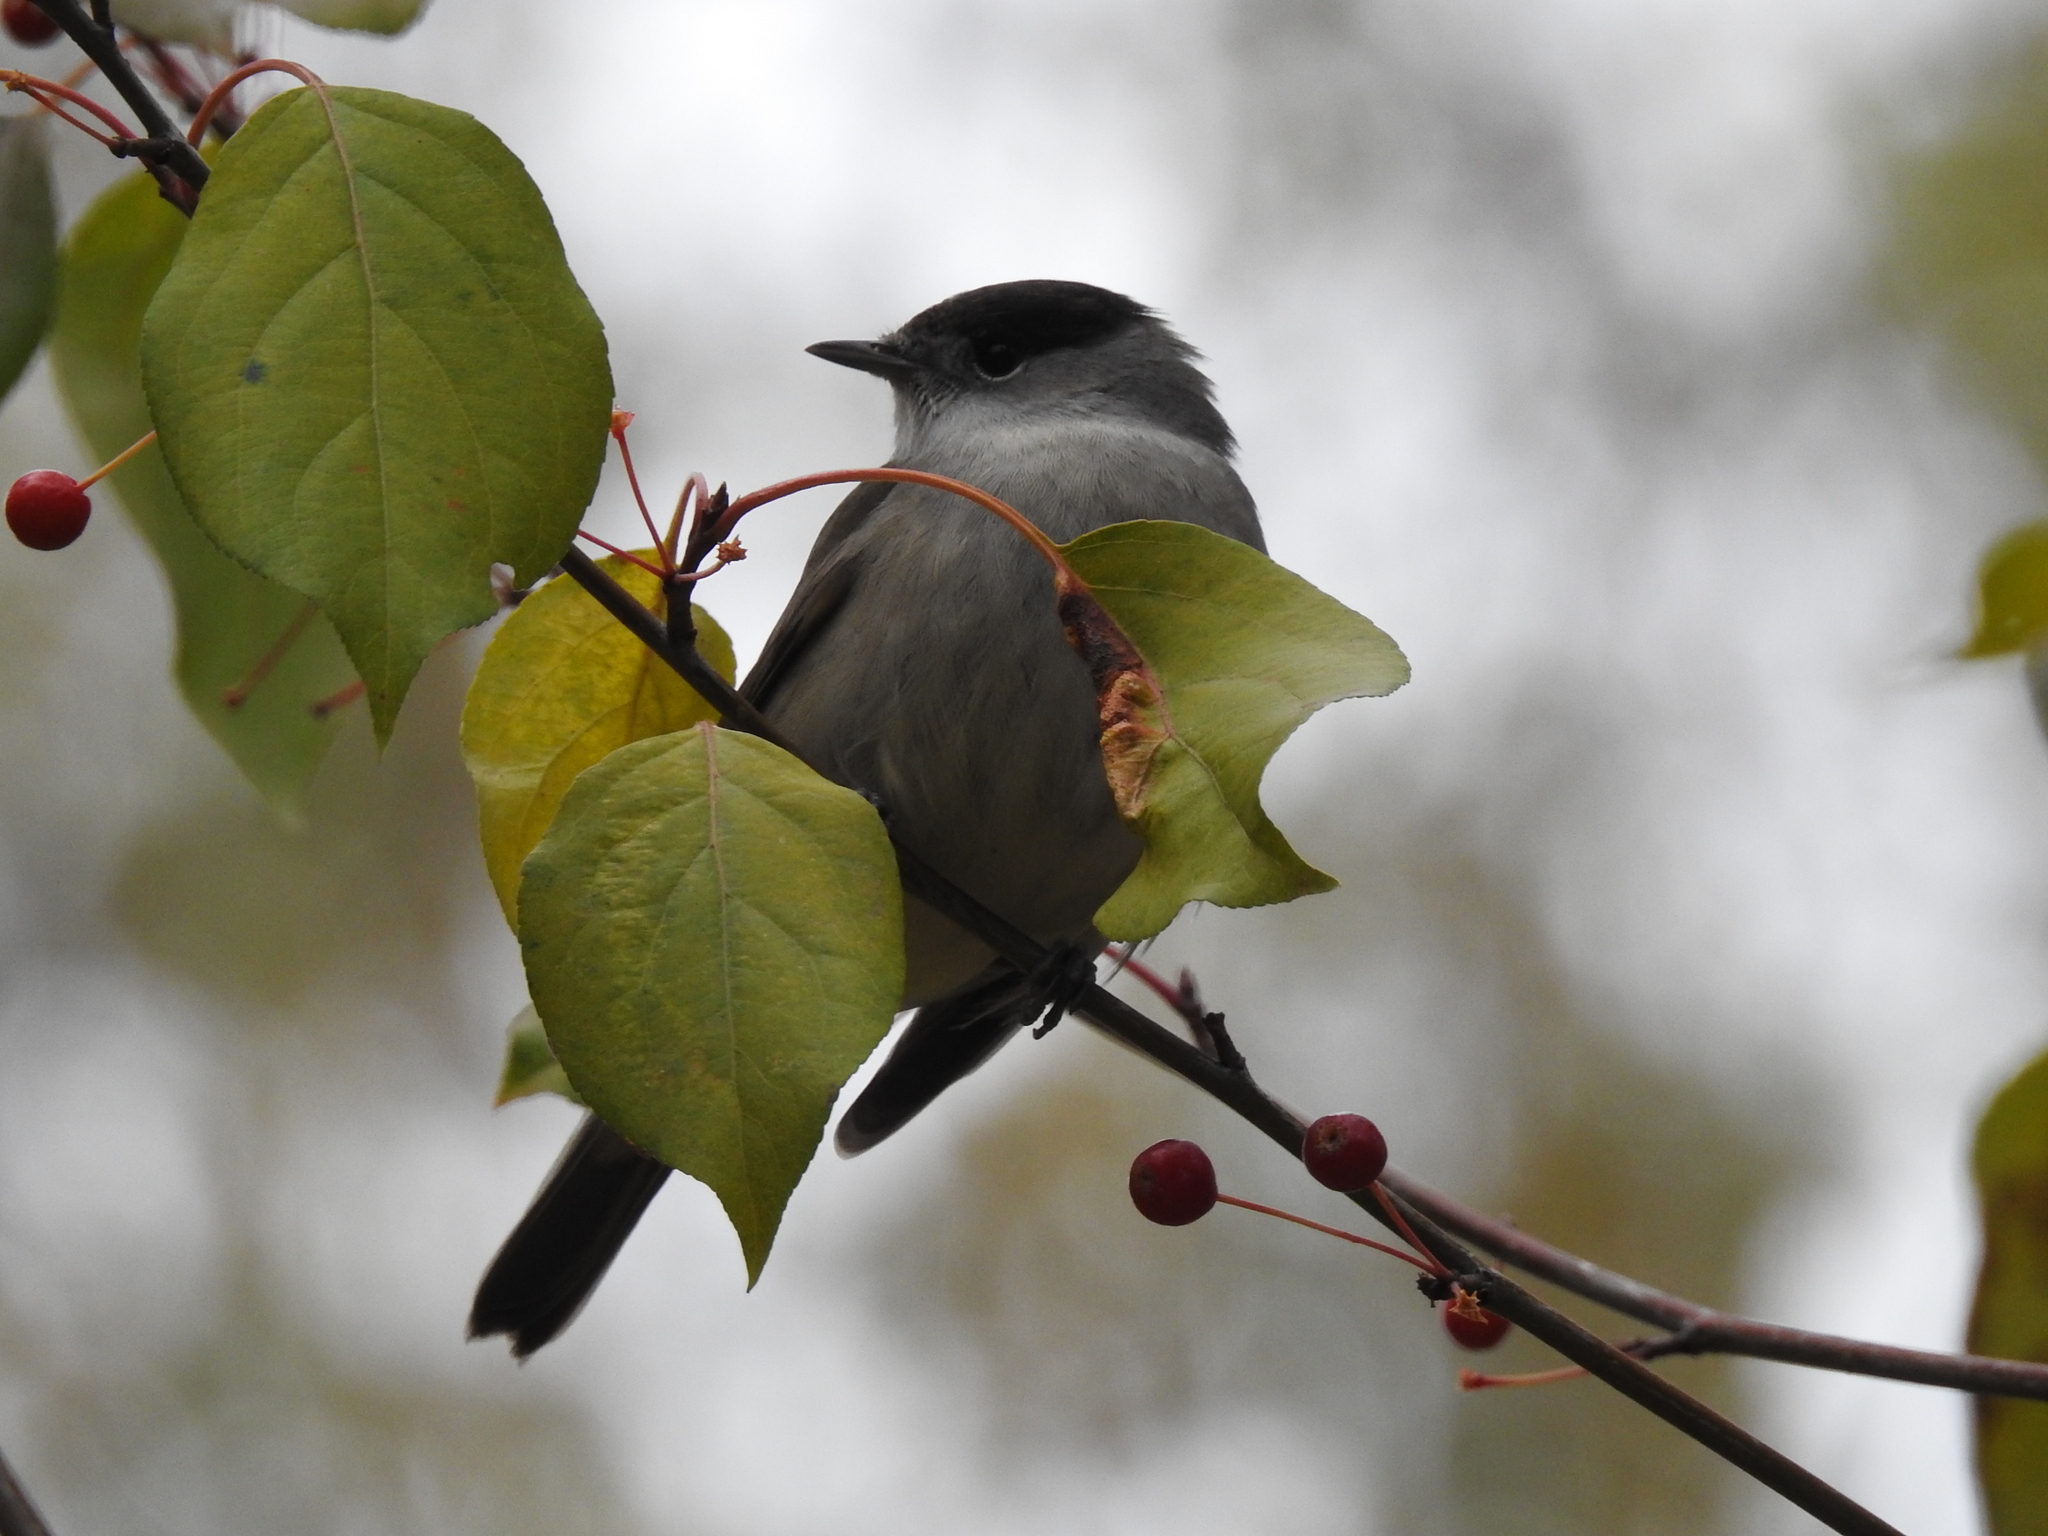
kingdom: Animalia
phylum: Chordata
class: Aves
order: Passeriformes
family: Sylviidae
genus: Sylvia
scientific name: Sylvia atricapilla
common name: Eurasian blackcap
